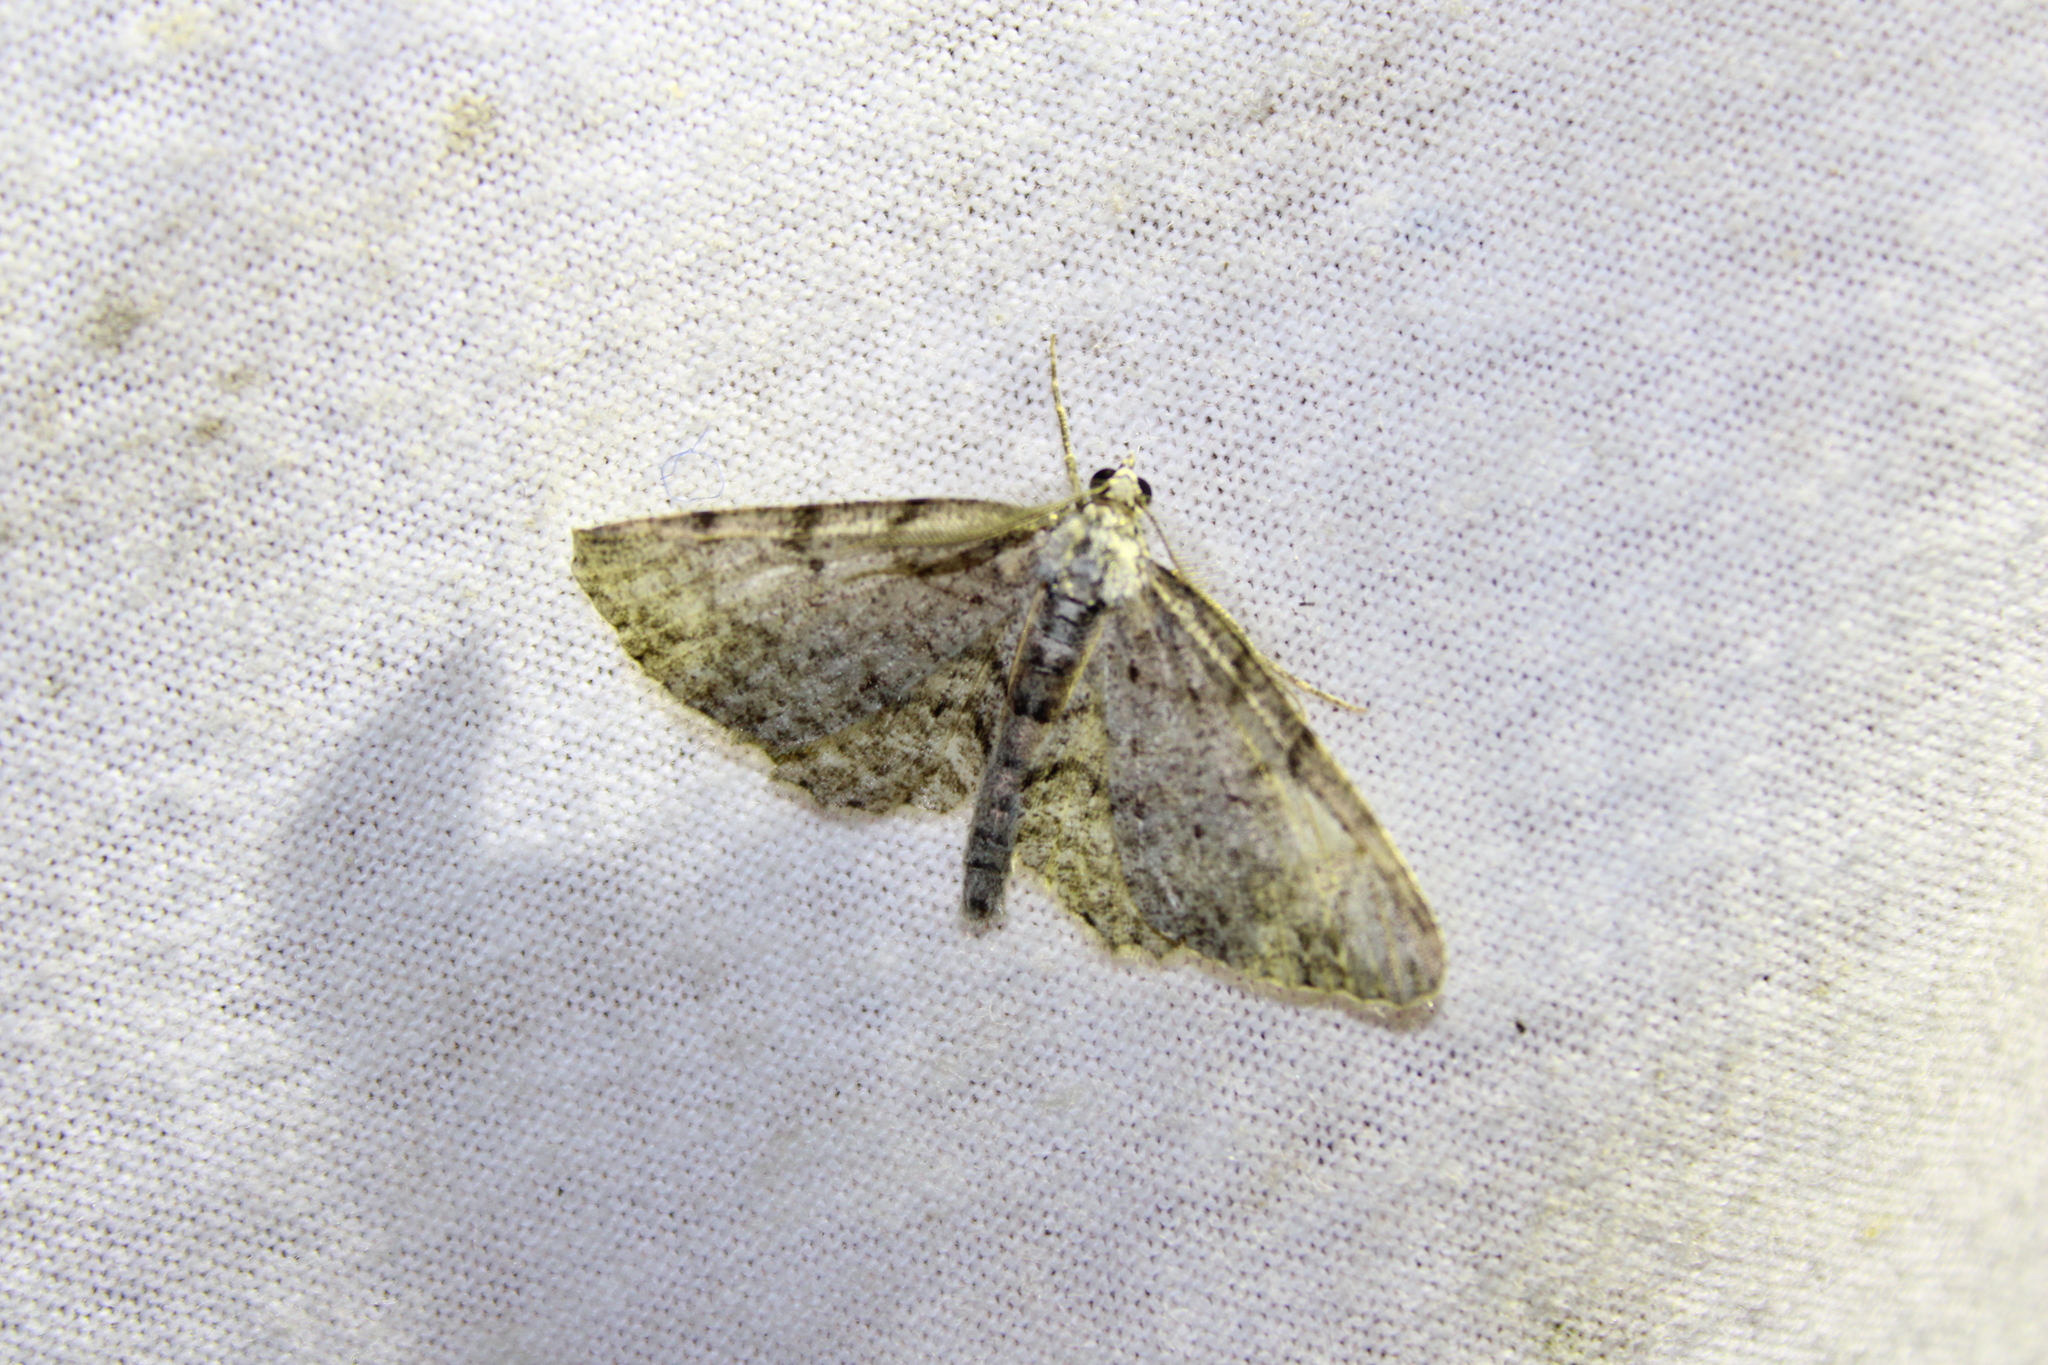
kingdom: Animalia
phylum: Arthropoda
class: Insecta
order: Lepidoptera
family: Geometridae
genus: Protoboarmia
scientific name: Protoboarmia porcelaria
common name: Porcelain gray
